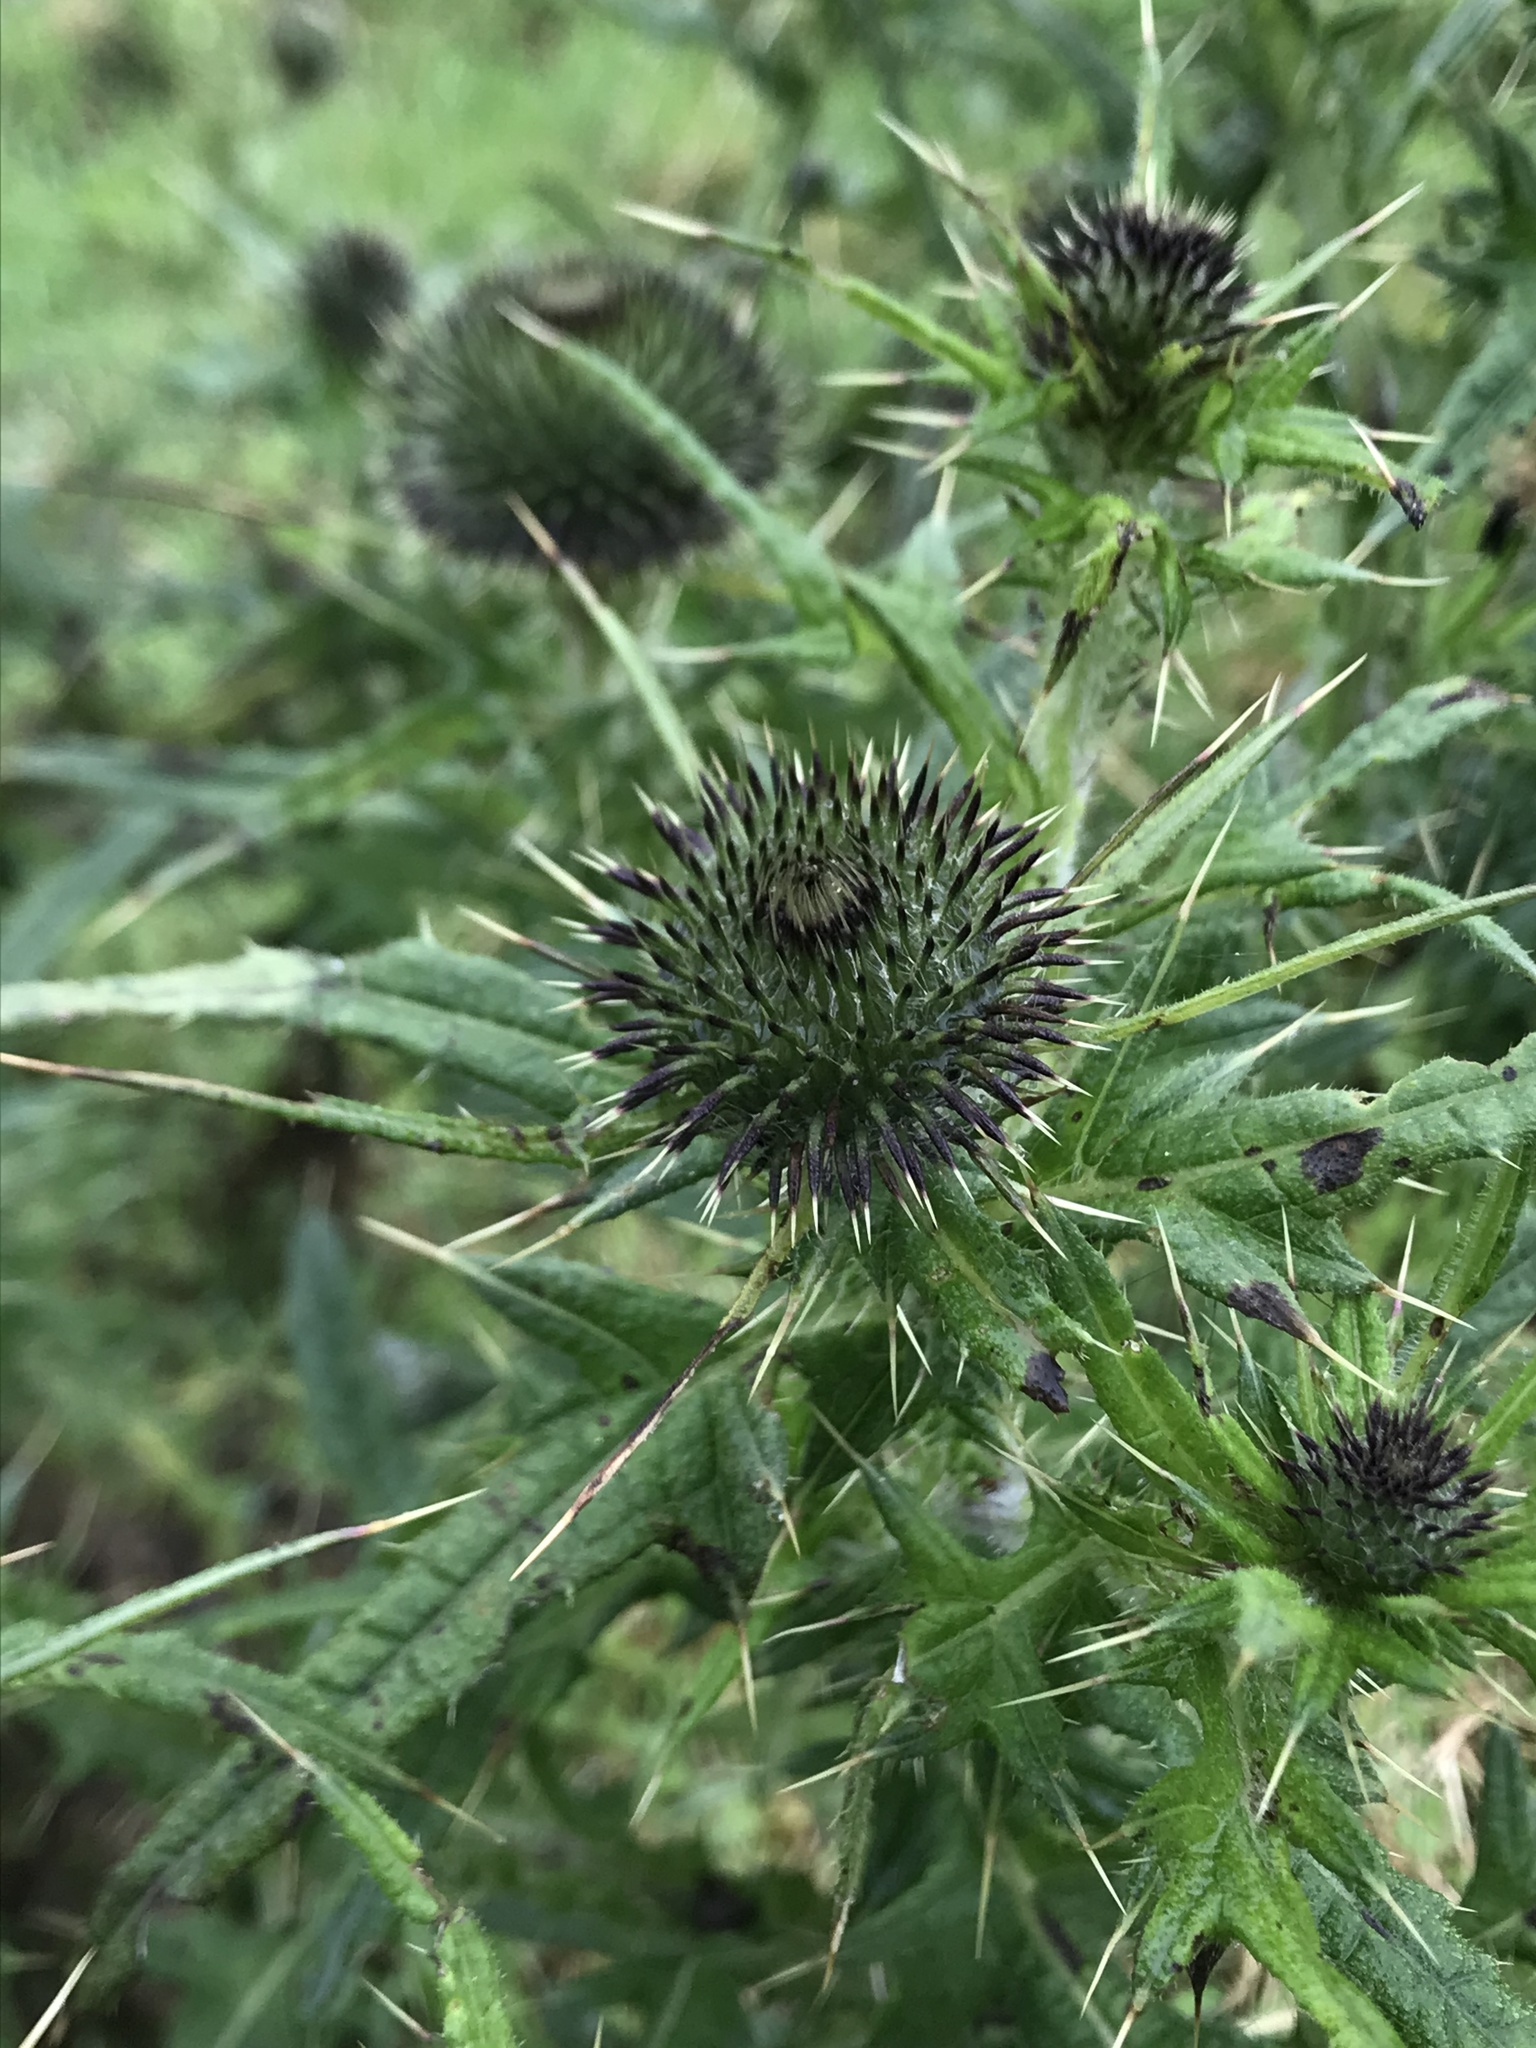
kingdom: Plantae
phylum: Tracheophyta
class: Magnoliopsida
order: Asterales
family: Asteraceae
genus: Cirsium
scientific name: Cirsium vulgare
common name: Bull thistle
